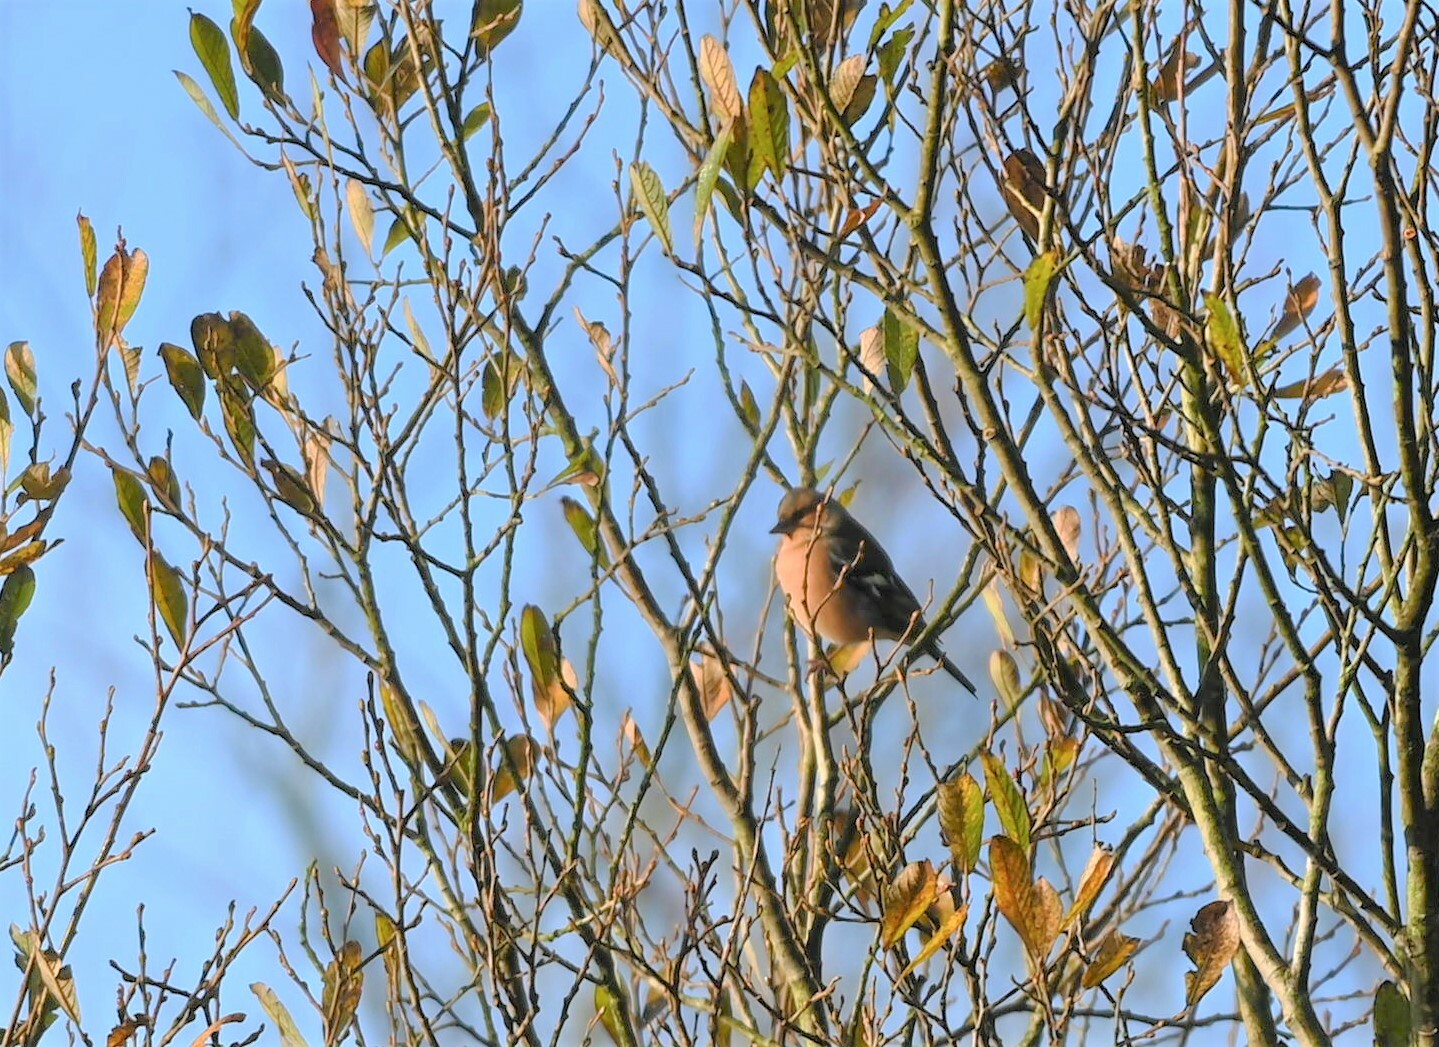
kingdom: Animalia
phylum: Chordata
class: Aves
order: Passeriformes
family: Fringillidae
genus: Fringilla
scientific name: Fringilla coelebs
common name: Common chaffinch
